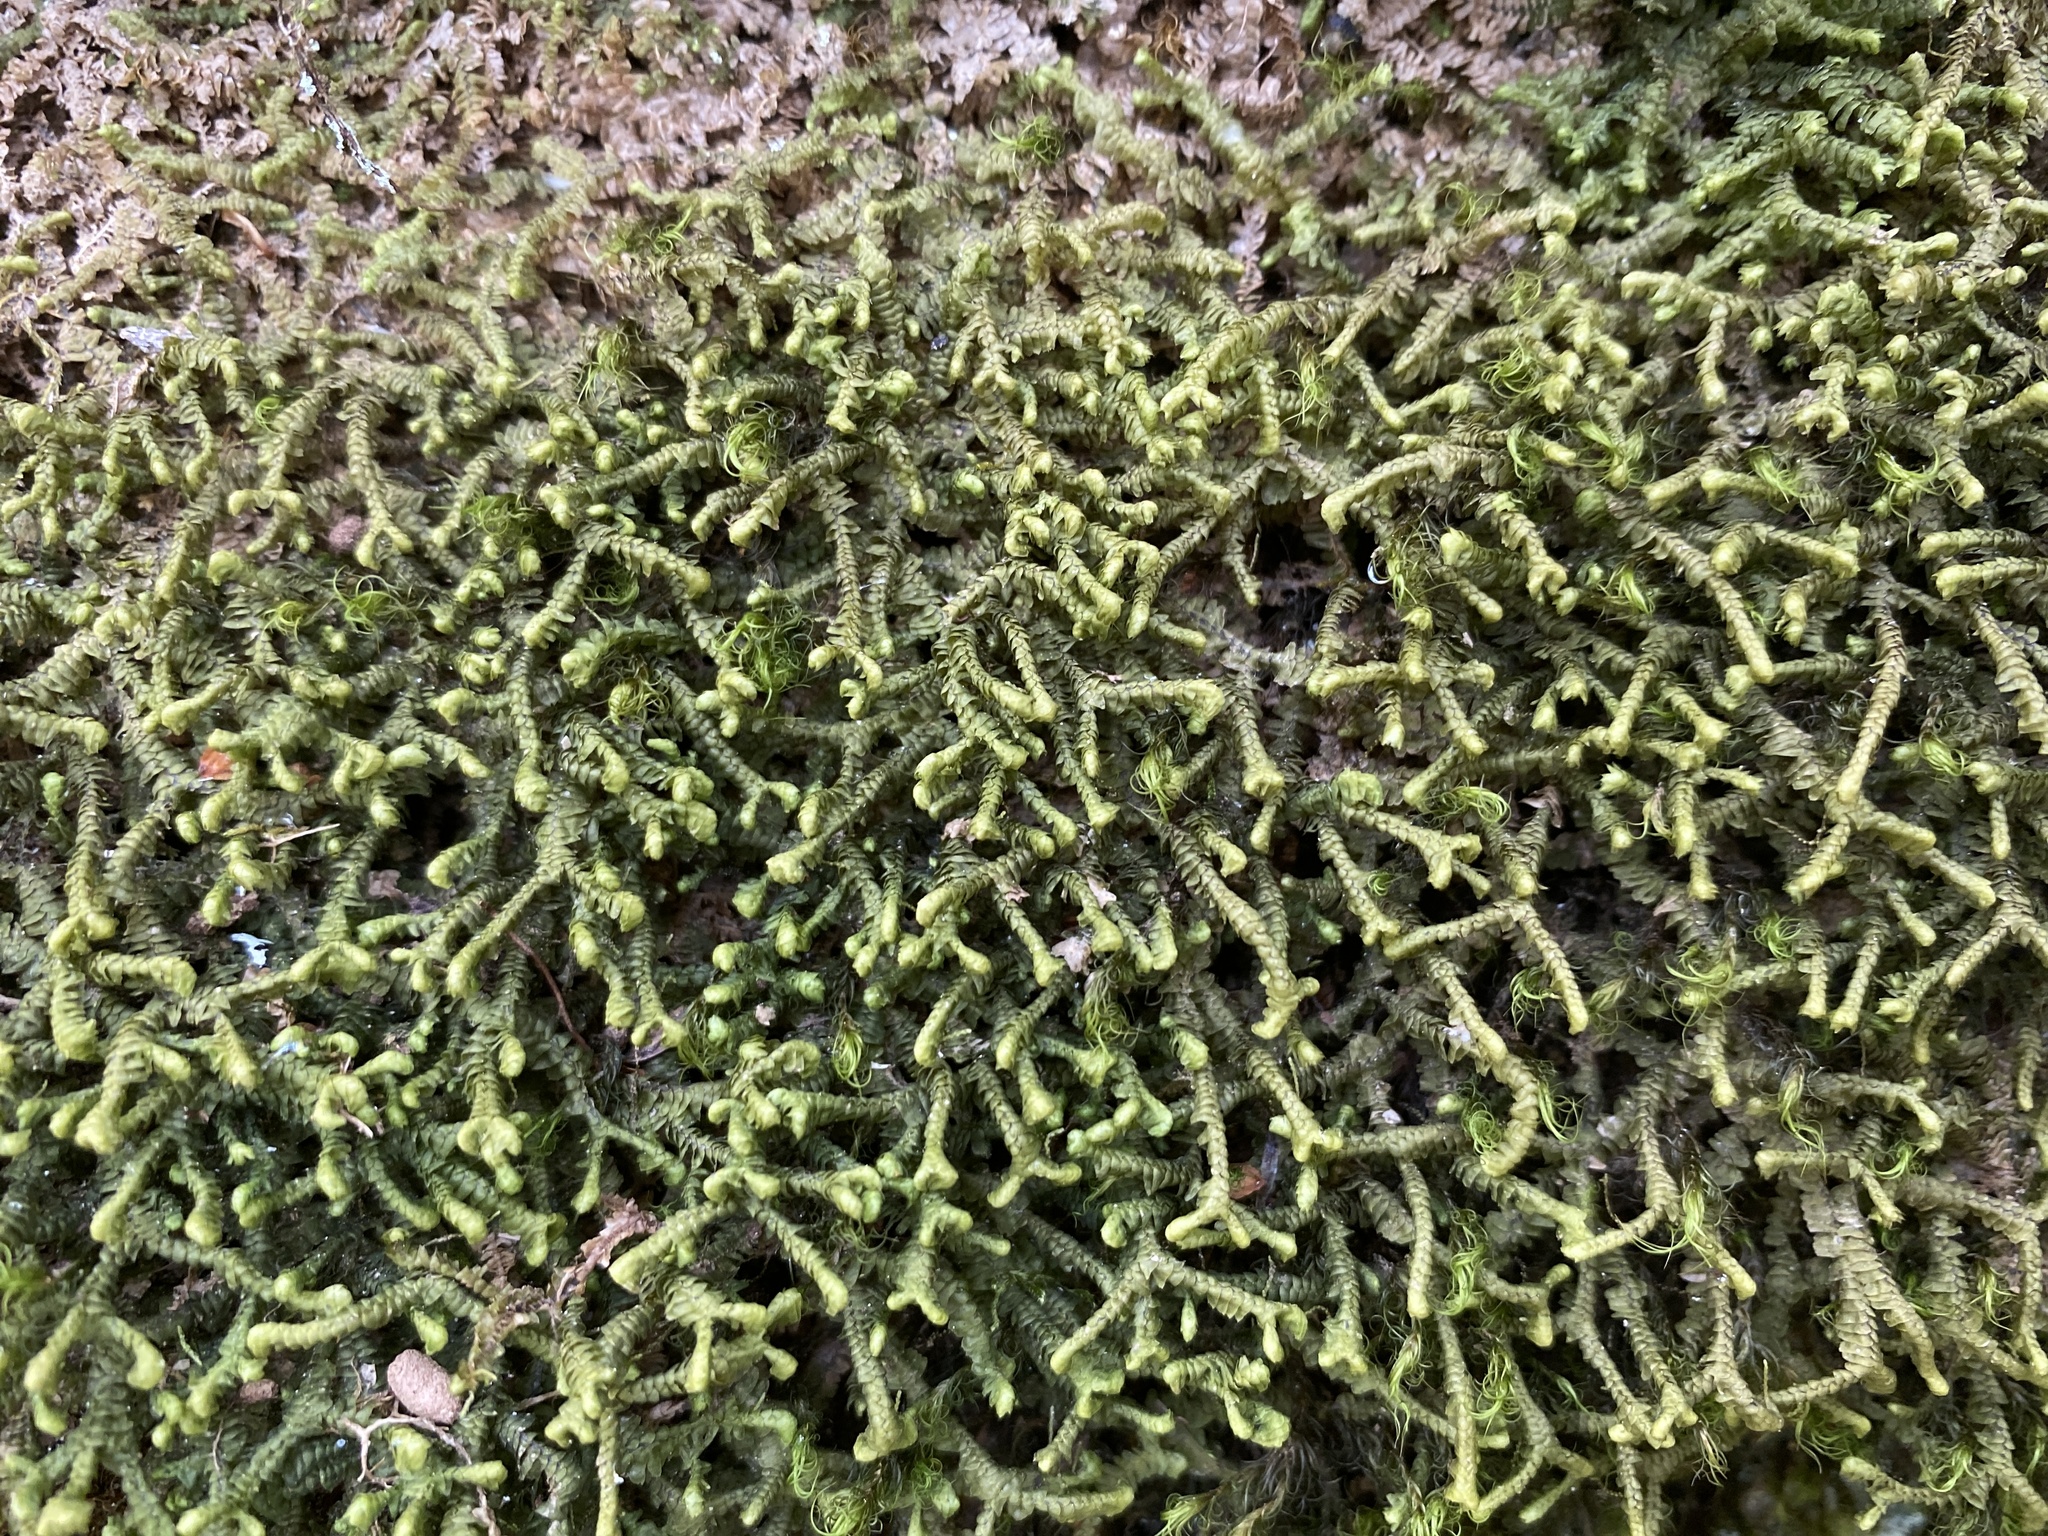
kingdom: Plantae
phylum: Marchantiophyta
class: Jungermanniopsida
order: Jungermanniales
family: Lepidoziaceae
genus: Bazzania
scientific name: Bazzania trilobata
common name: Three-lobed whipwort
